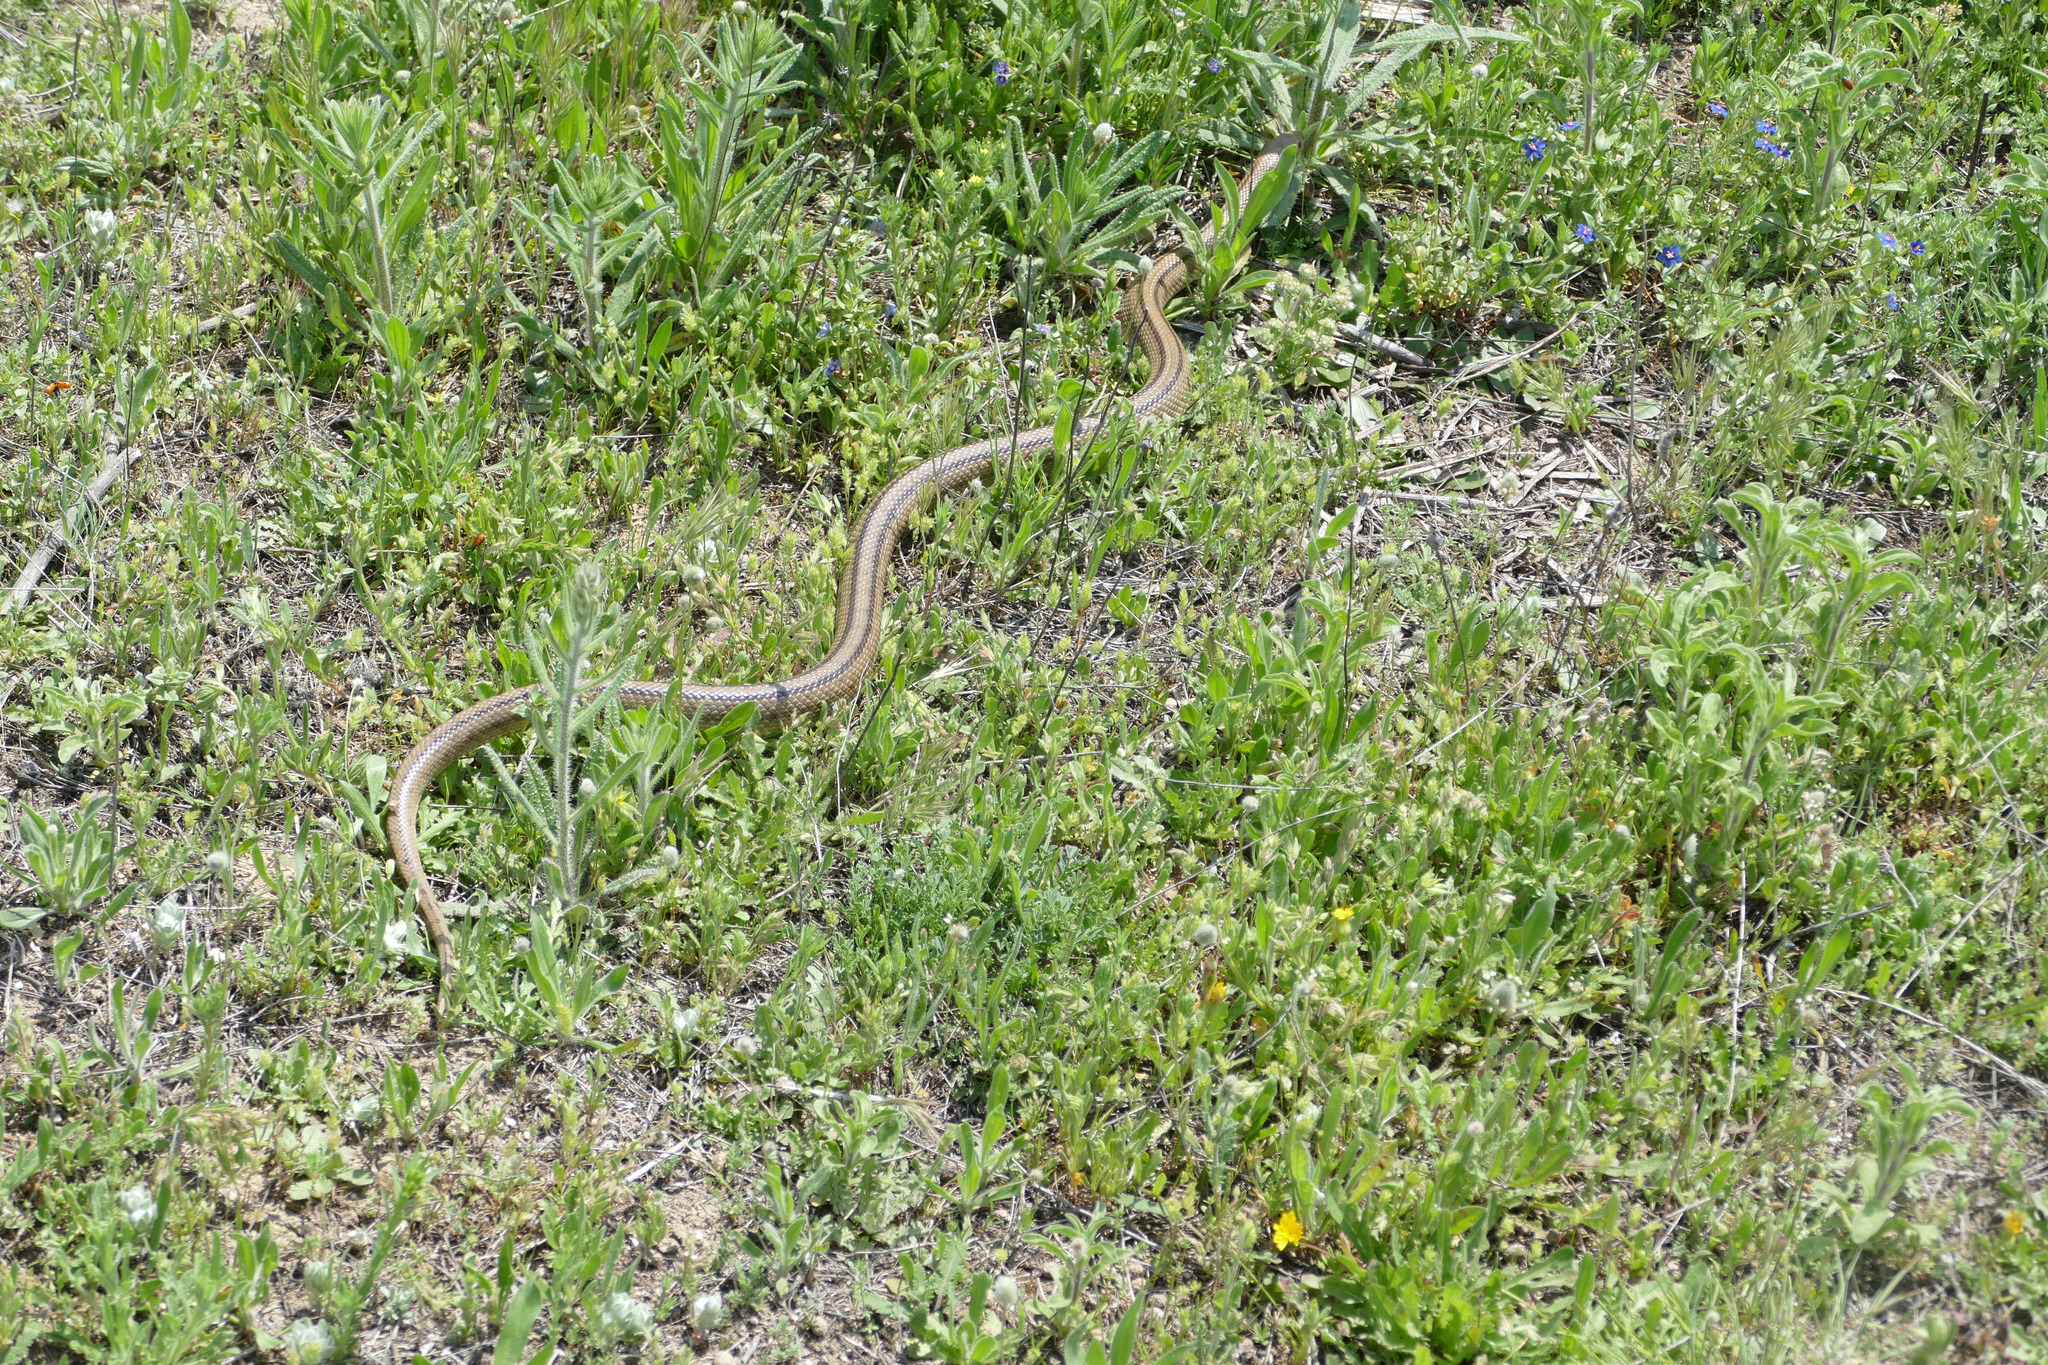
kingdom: Animalia
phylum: Chordata
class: Squamata
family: Colubridae
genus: Zamenis
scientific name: Zamenis scalaris
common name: Ladder snakes
